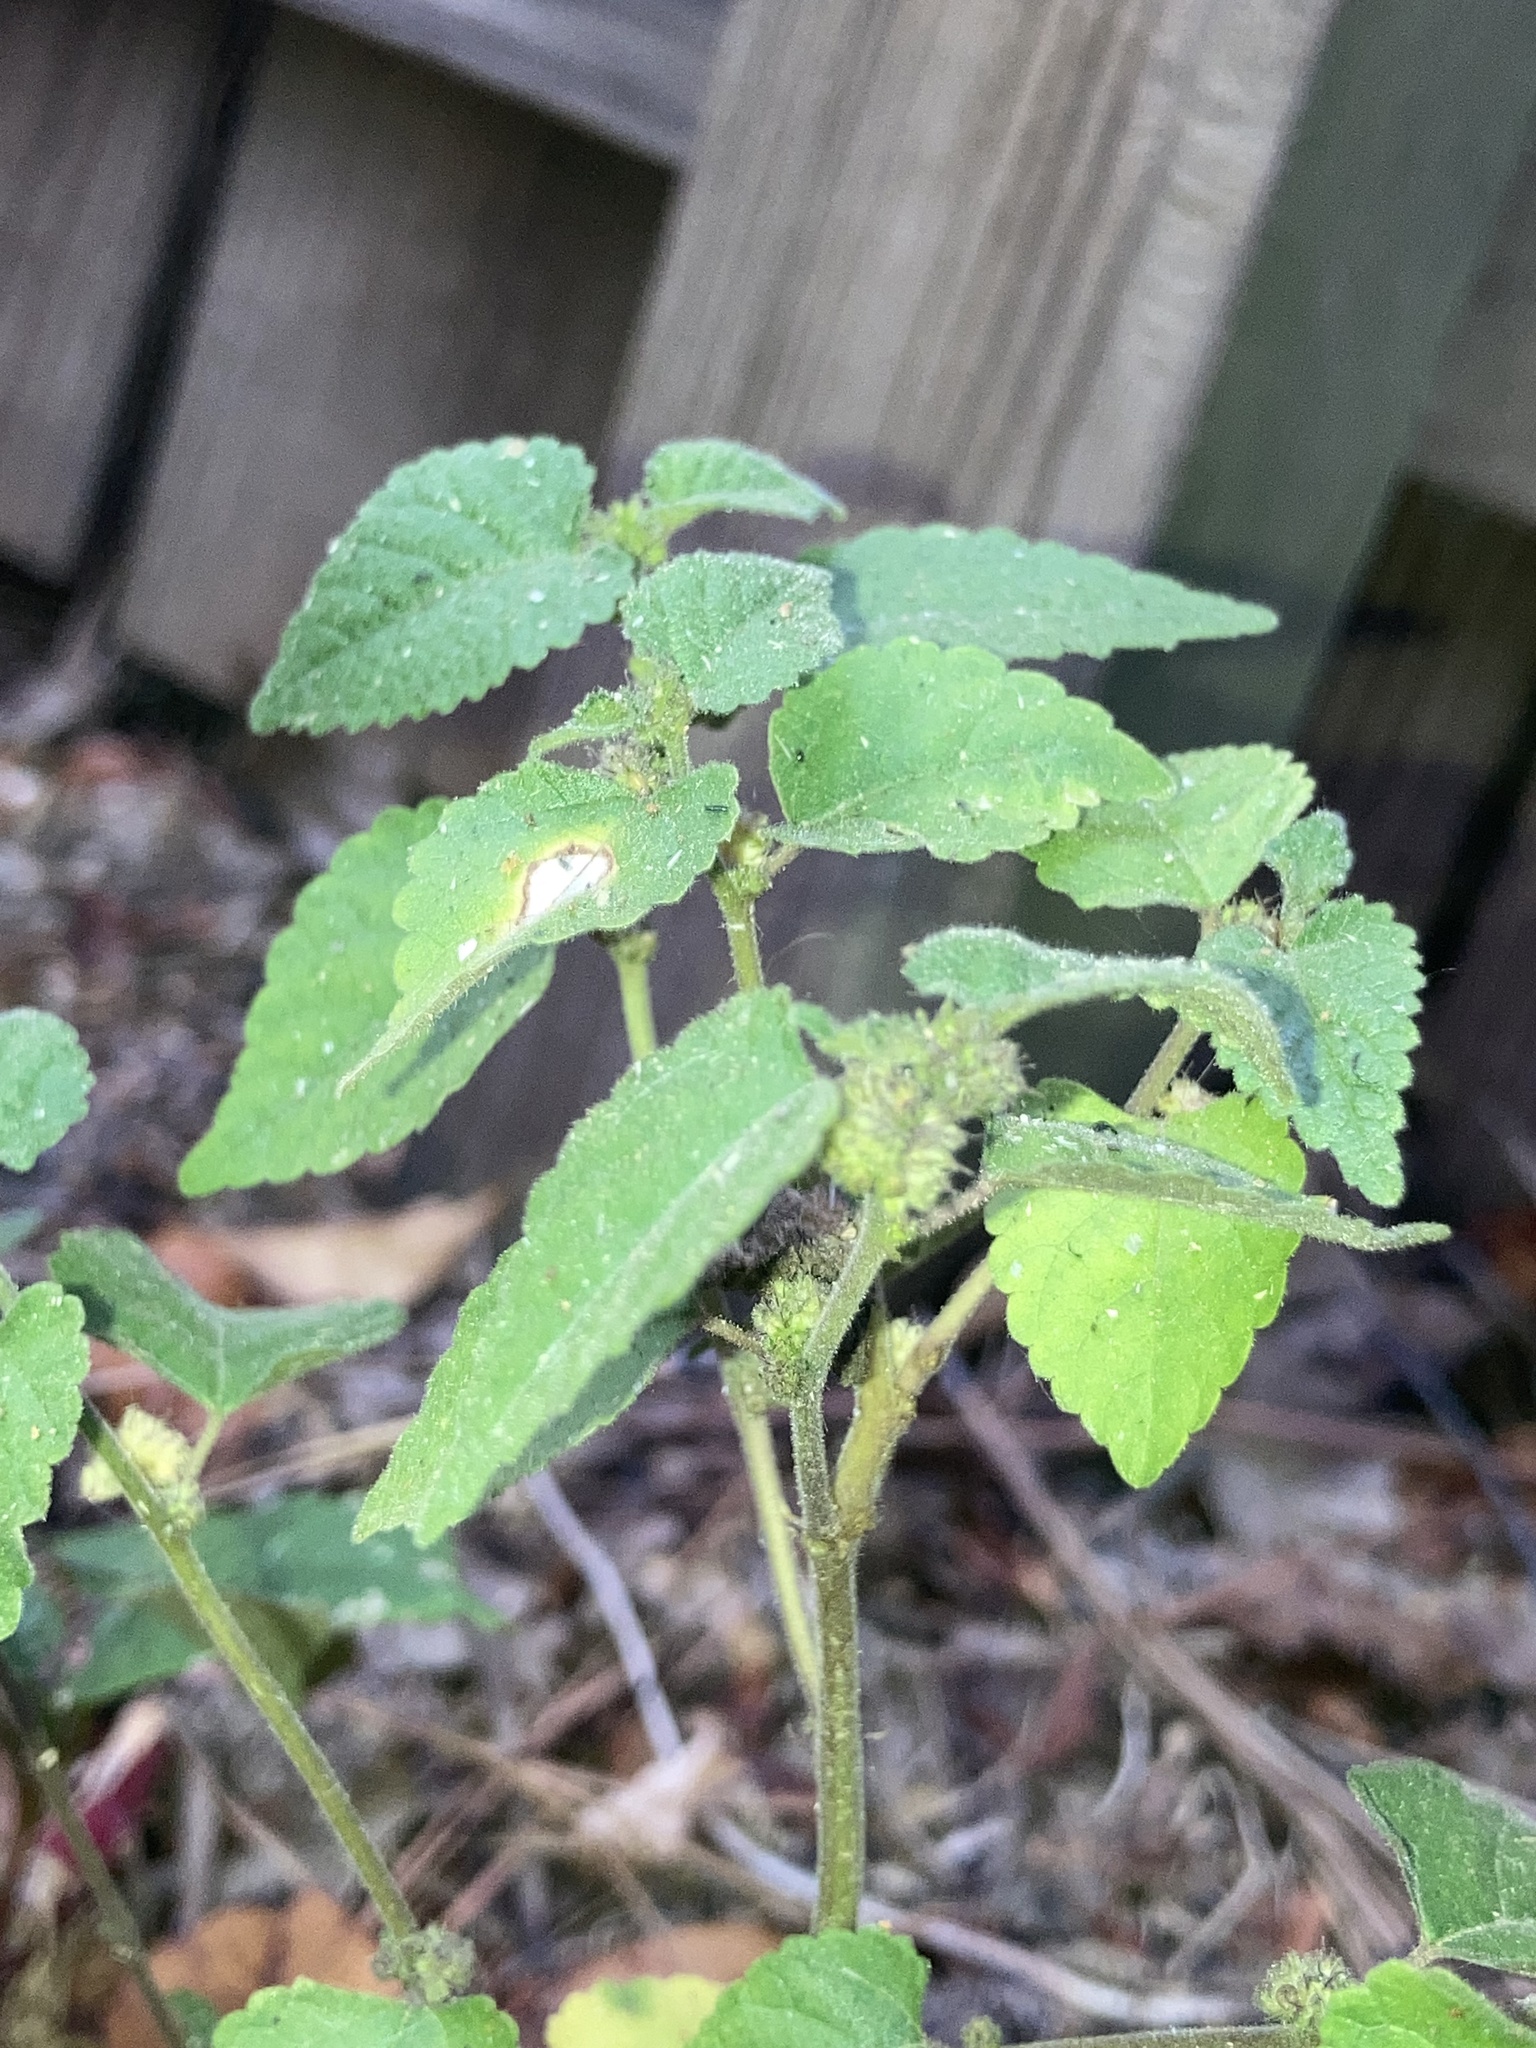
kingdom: Plantae
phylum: Tracheophyta
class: Magnoliopsida
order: Rosales
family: Moraceae
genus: Fatoua
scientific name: Fatoua villosa
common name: Hairy crabweed
